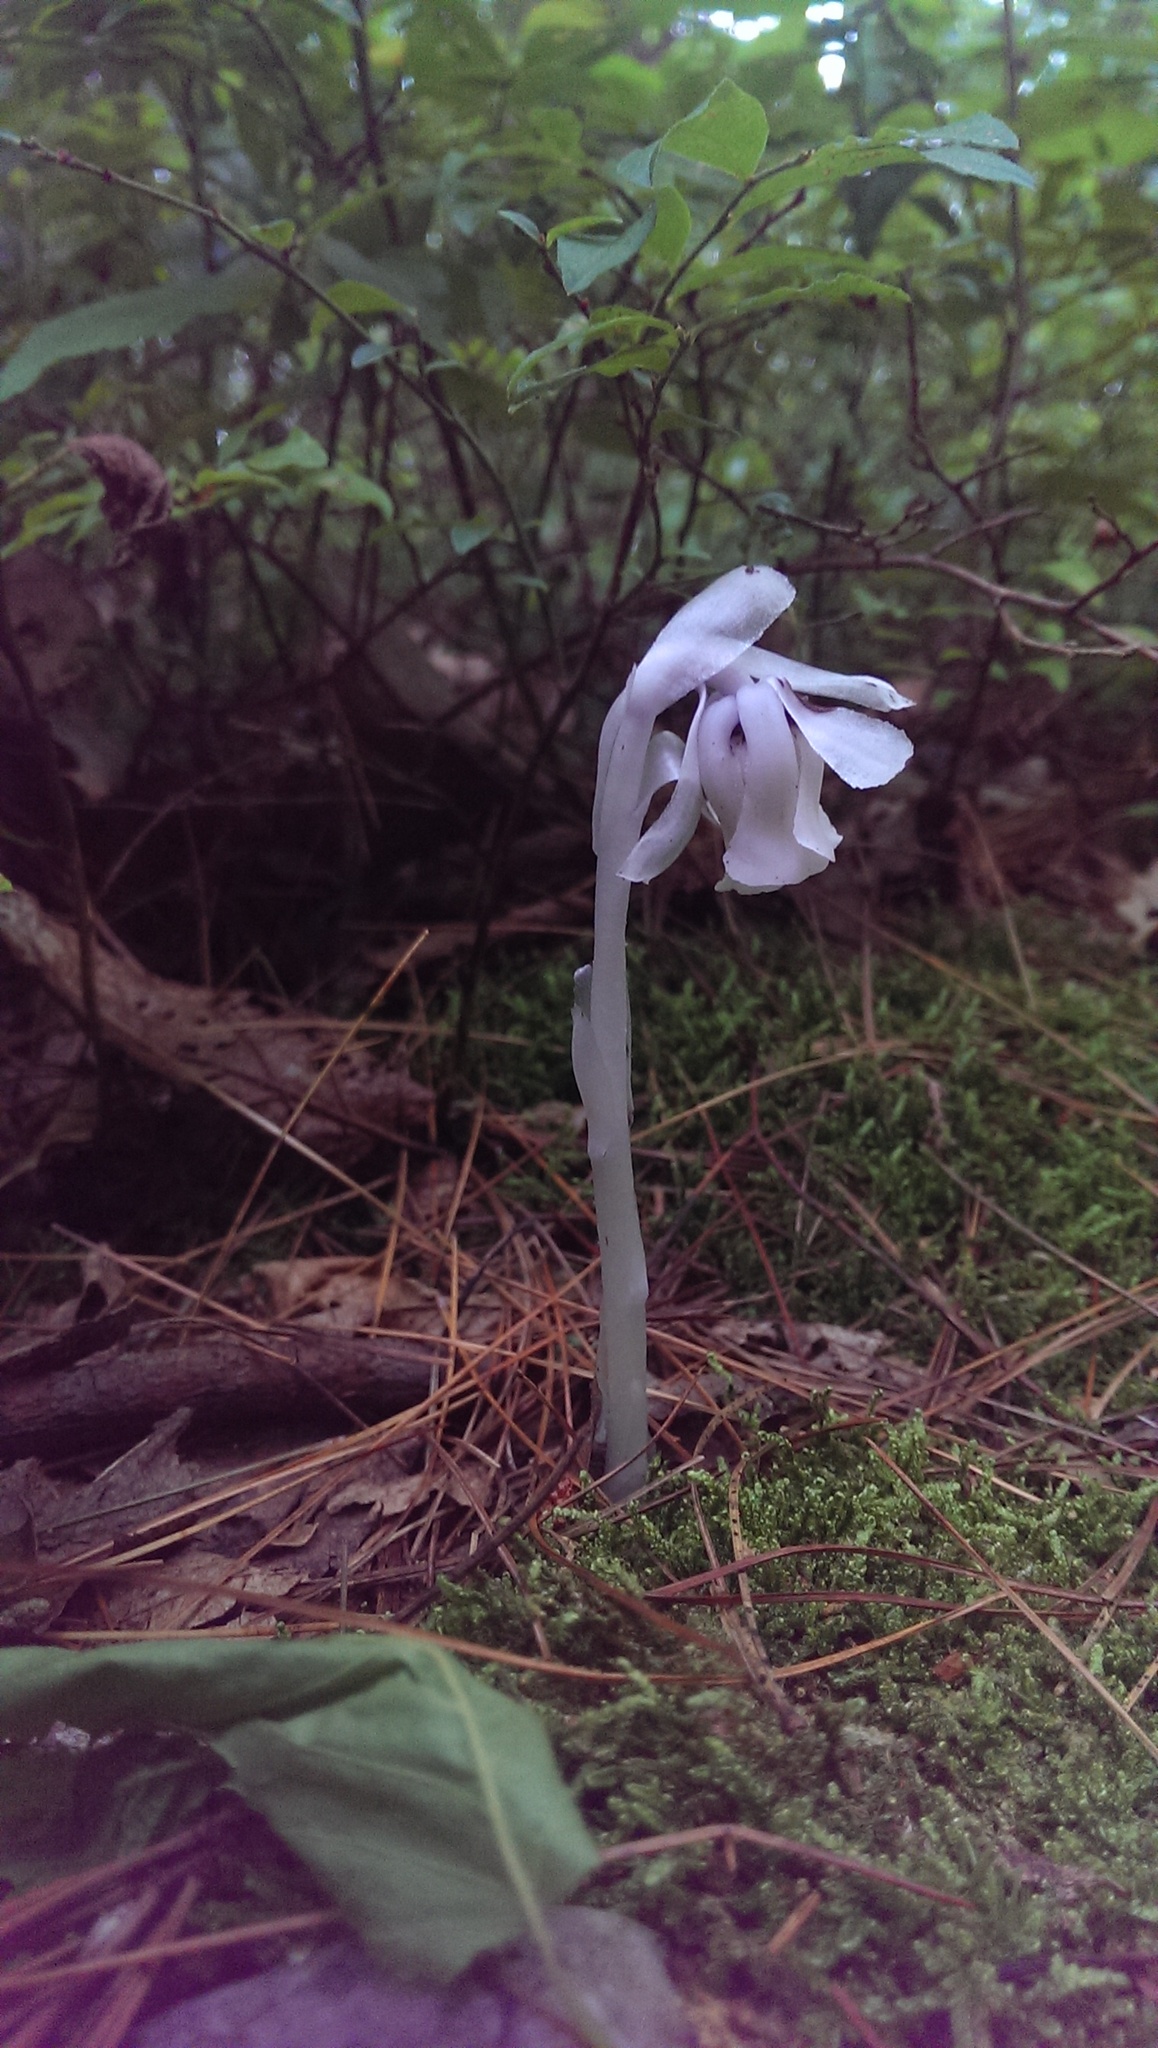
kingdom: Plantae
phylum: Tracheophyta
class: Magnoliopsida
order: Ericales
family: Ericaceae
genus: Monotropa
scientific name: Monotropa uniflora
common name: Convulsion root
